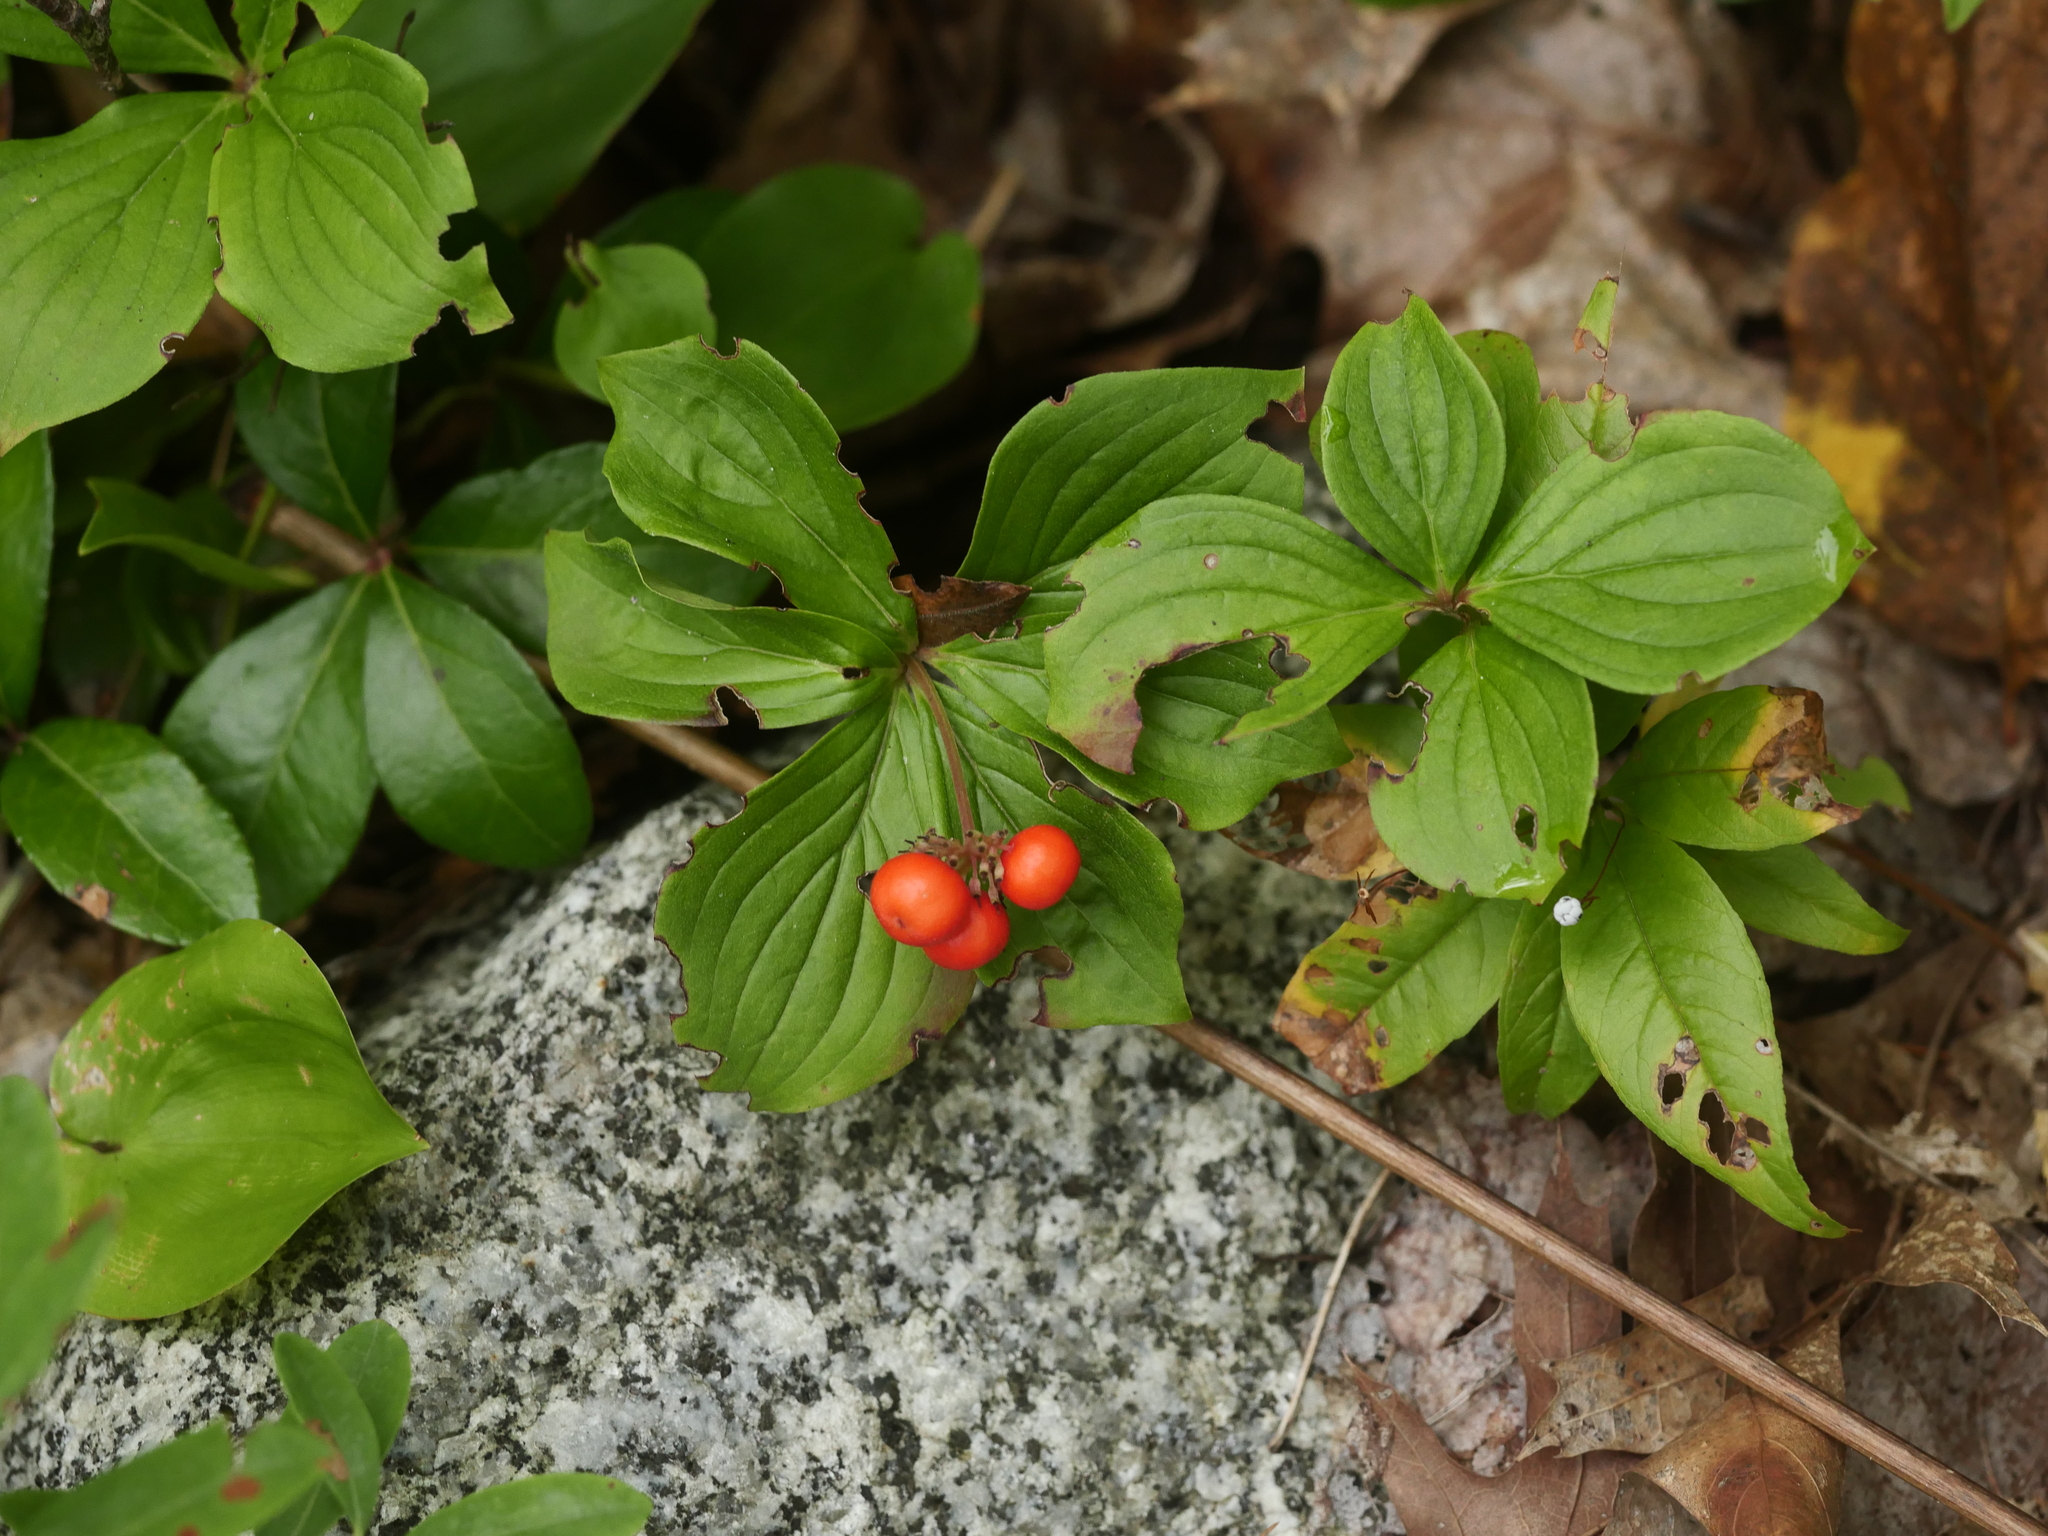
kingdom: Plantae
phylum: Tracheophyta
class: Magnoliopsida
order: Cornales
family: Cornaceae
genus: Cornus
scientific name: Cornus canadensis
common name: Creeping dogwood
